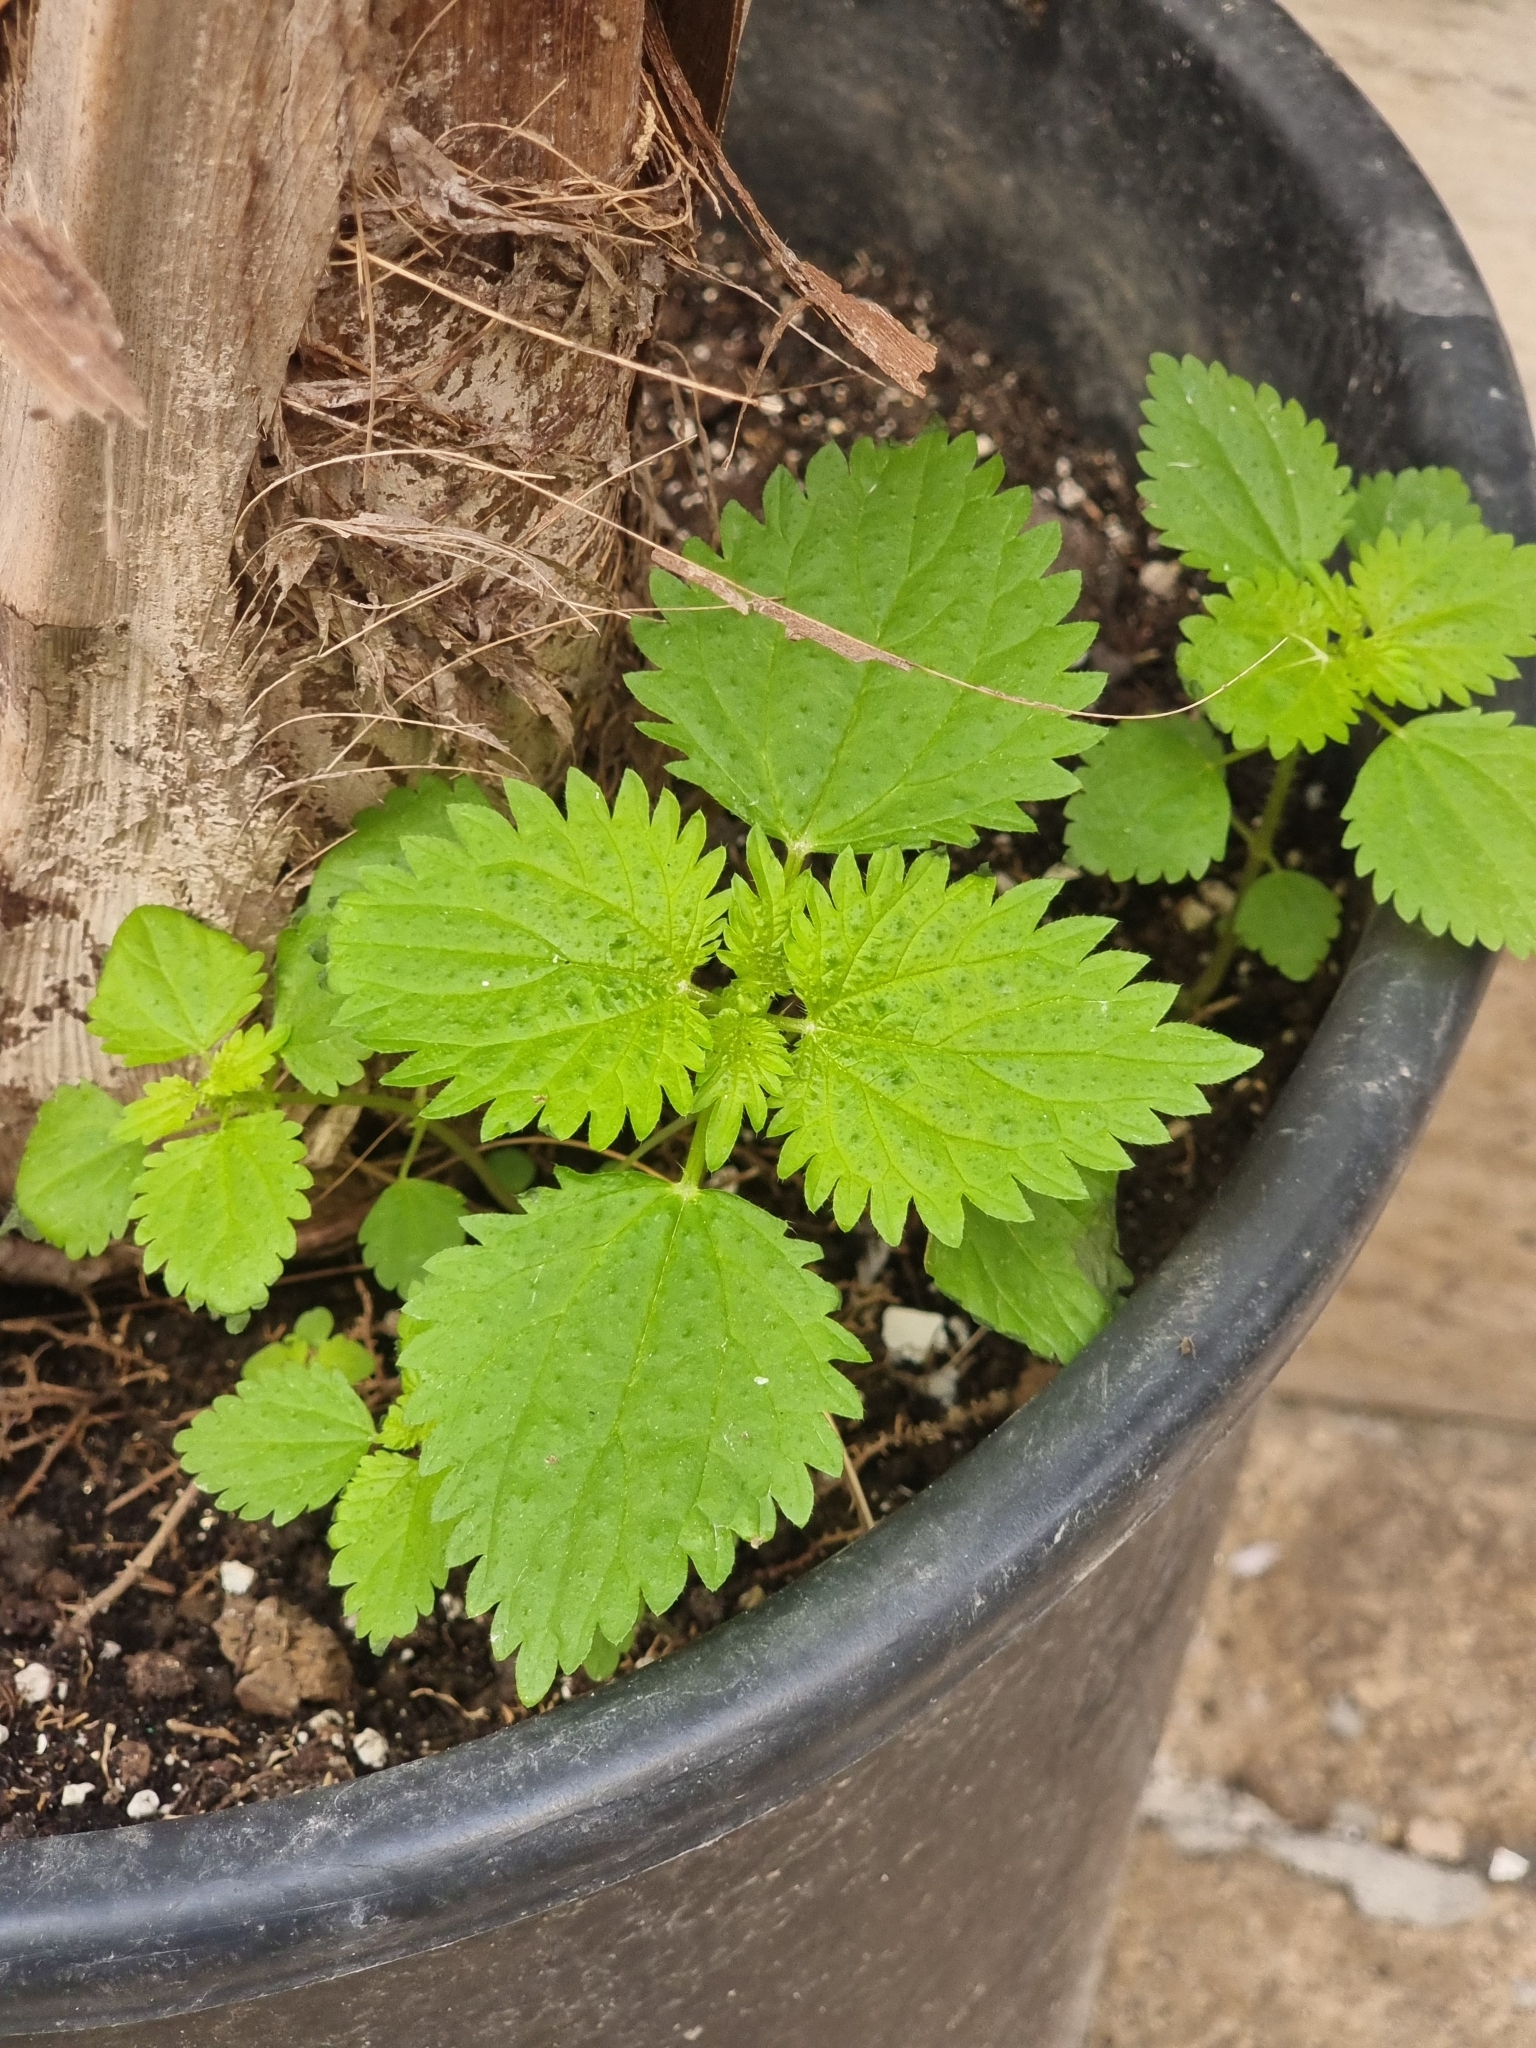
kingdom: Plantae
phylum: Tracheophyta
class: Magnoliopsida
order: Rosales
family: Urticaceae
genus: Urtica
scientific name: Urtica membranacea
